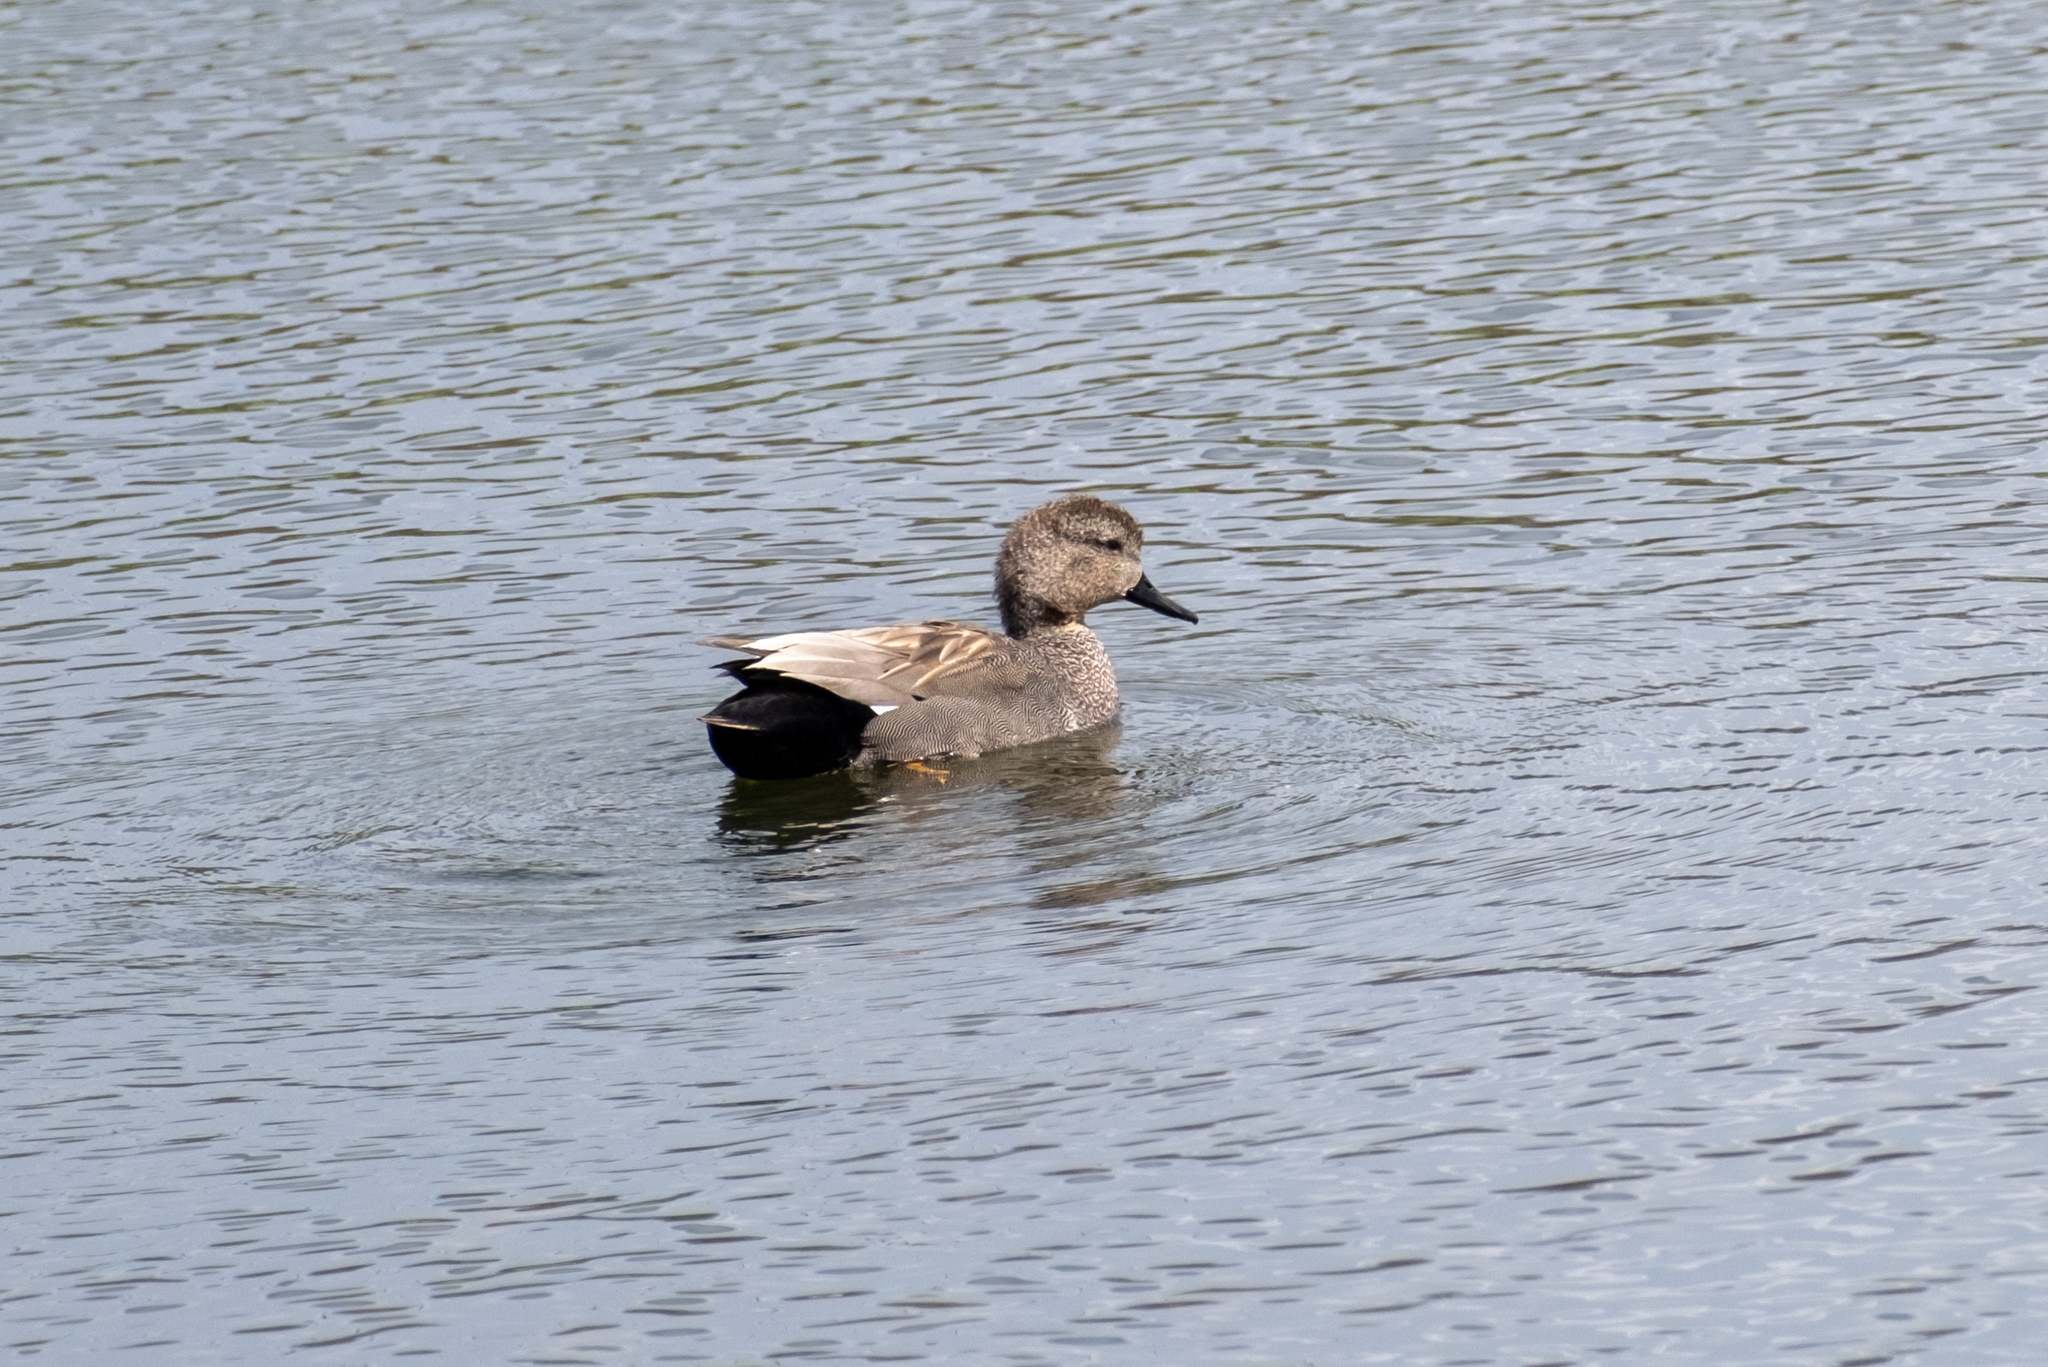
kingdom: Animalia
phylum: Chordata
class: Aves
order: Anseriformes
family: Anatidae
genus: Mareca
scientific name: Mareca strepera
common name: Gadwall
